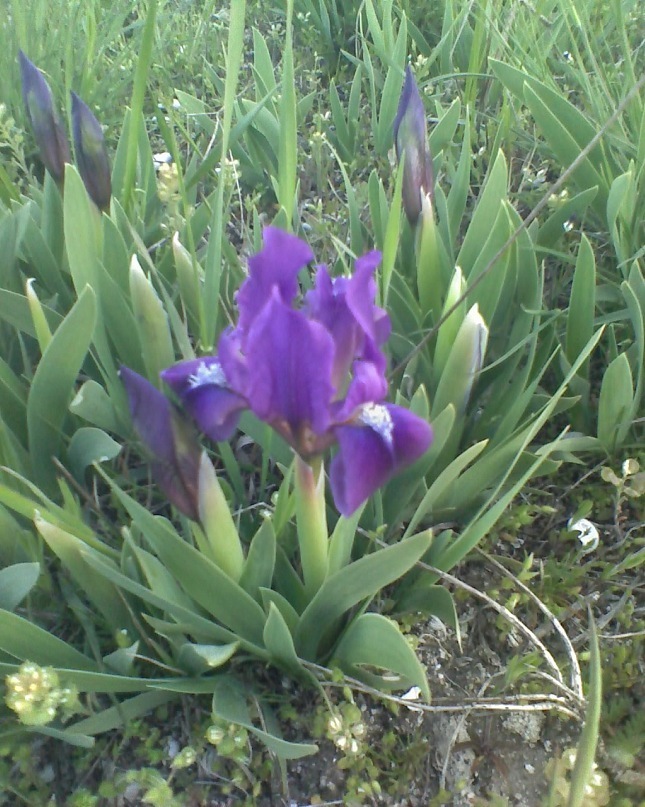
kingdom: Plantae
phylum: Tracheophyta
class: Liliopsida
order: Asparagales
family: Iridaceae
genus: Iris
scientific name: Iris pumila
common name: Dwarf iris
